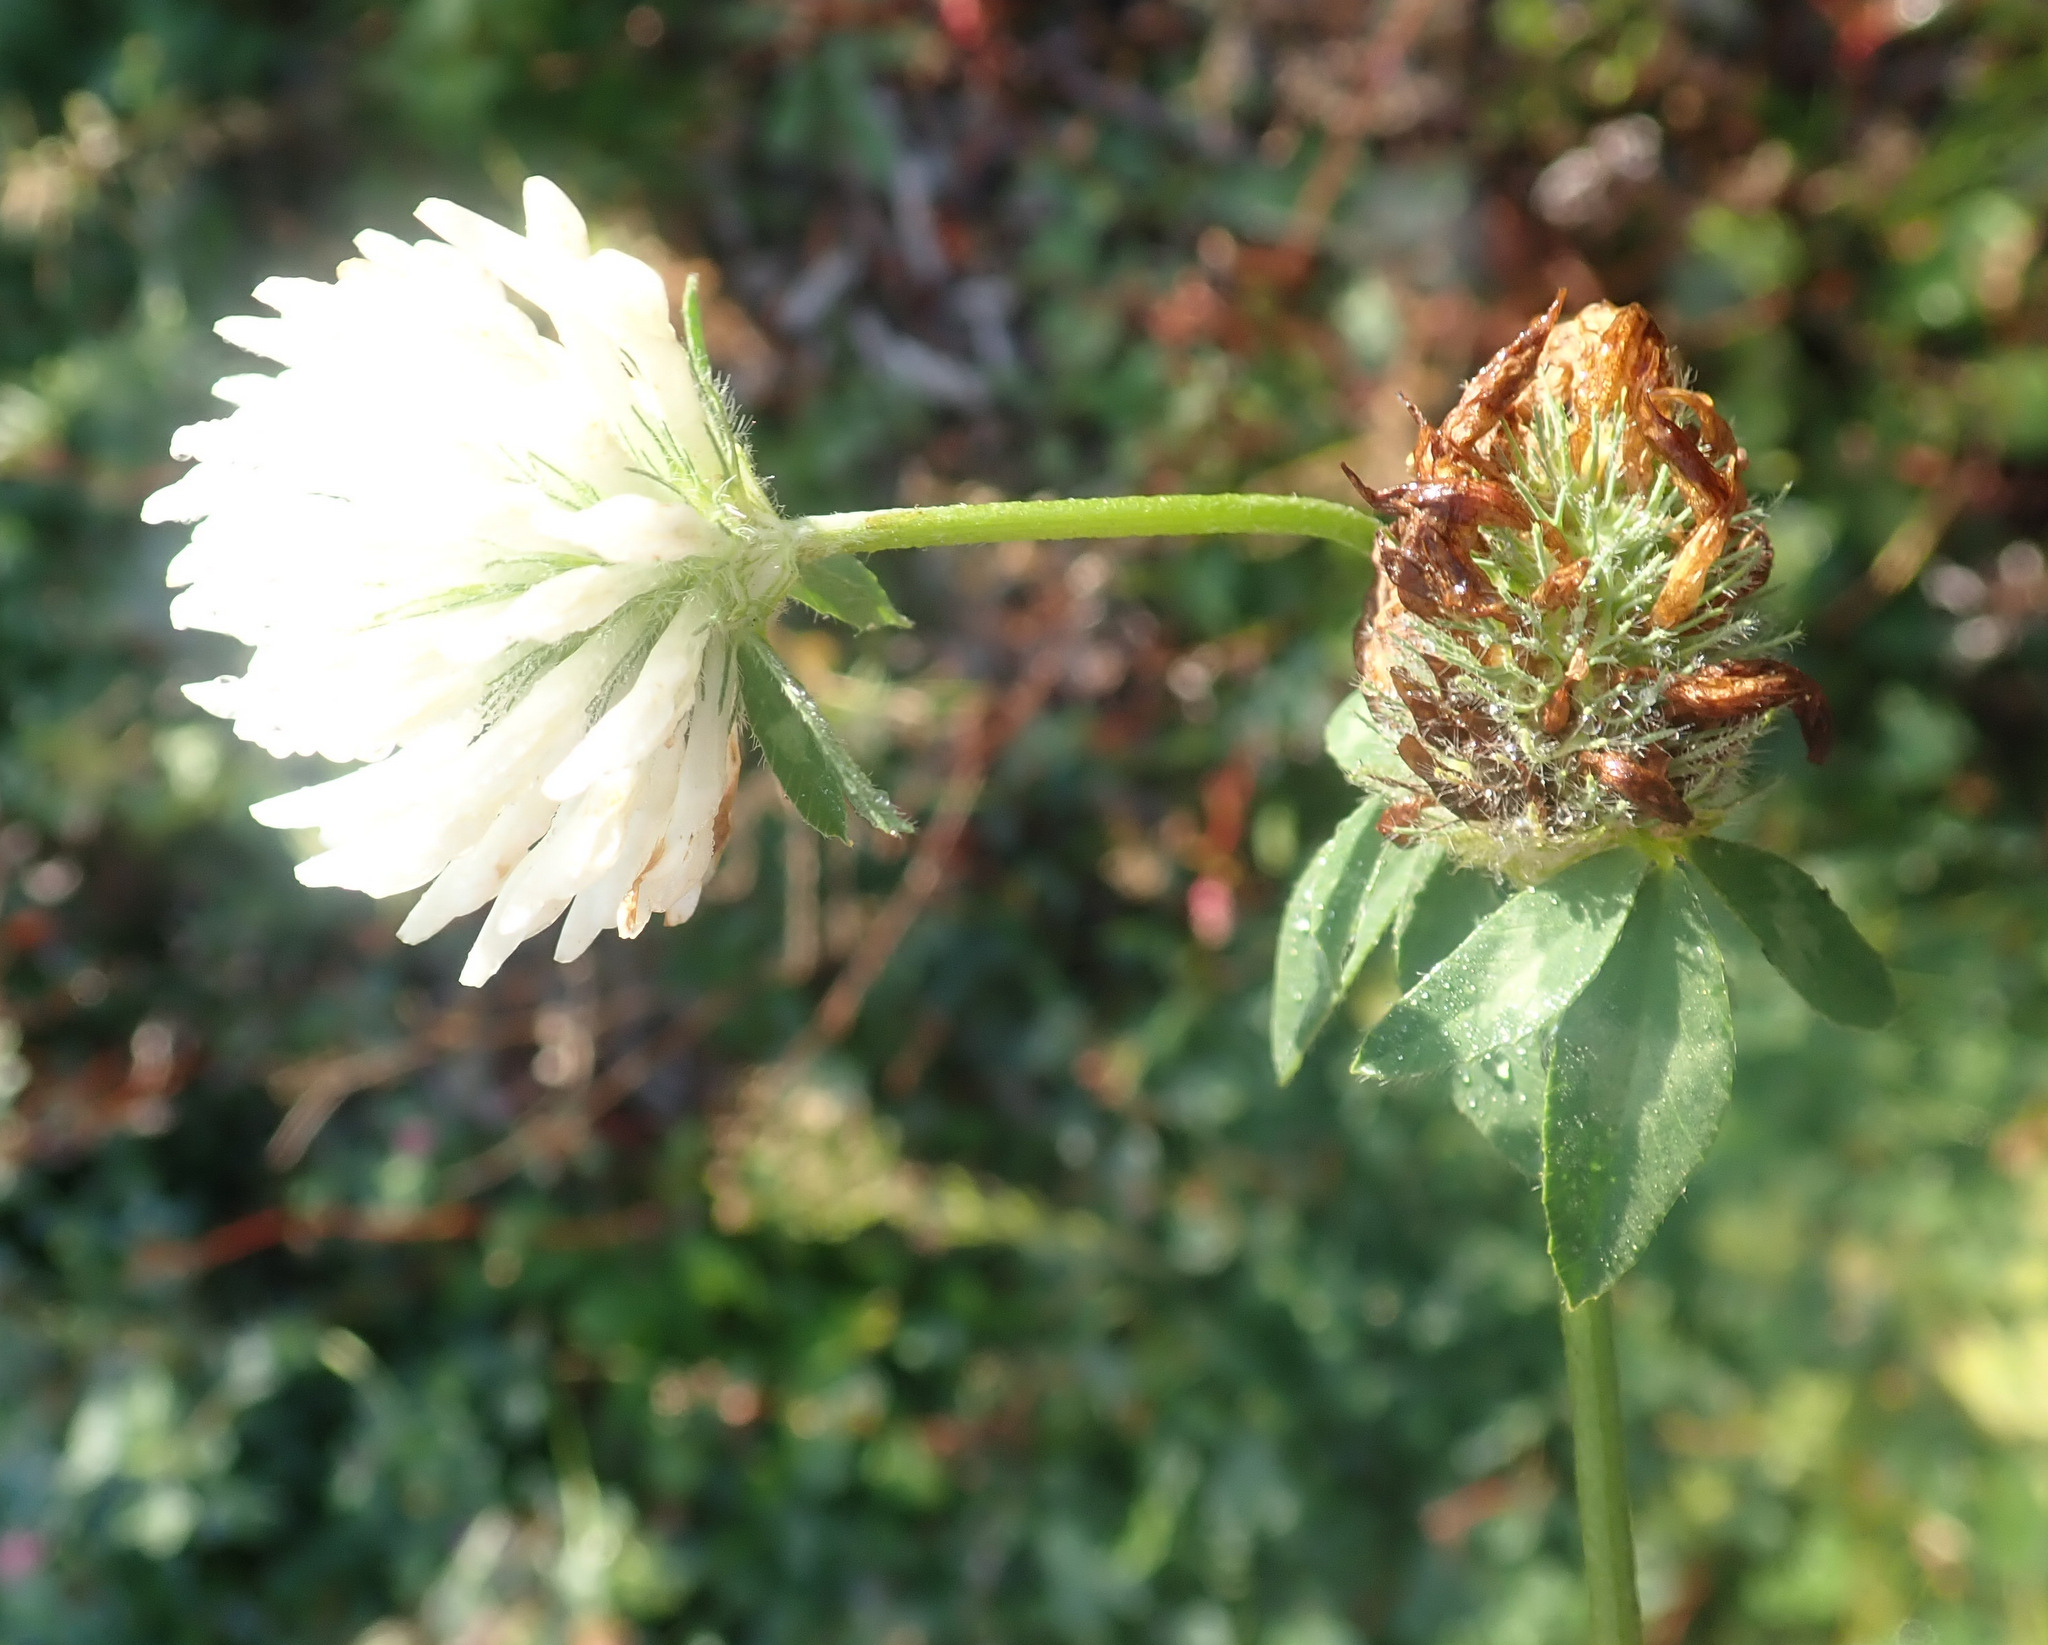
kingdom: Plantae
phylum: Tracheophyta
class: Magnoliopsida
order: Fabales
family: Fabaceae
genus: Trifolium
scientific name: Trifolium pratense
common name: Red clover
